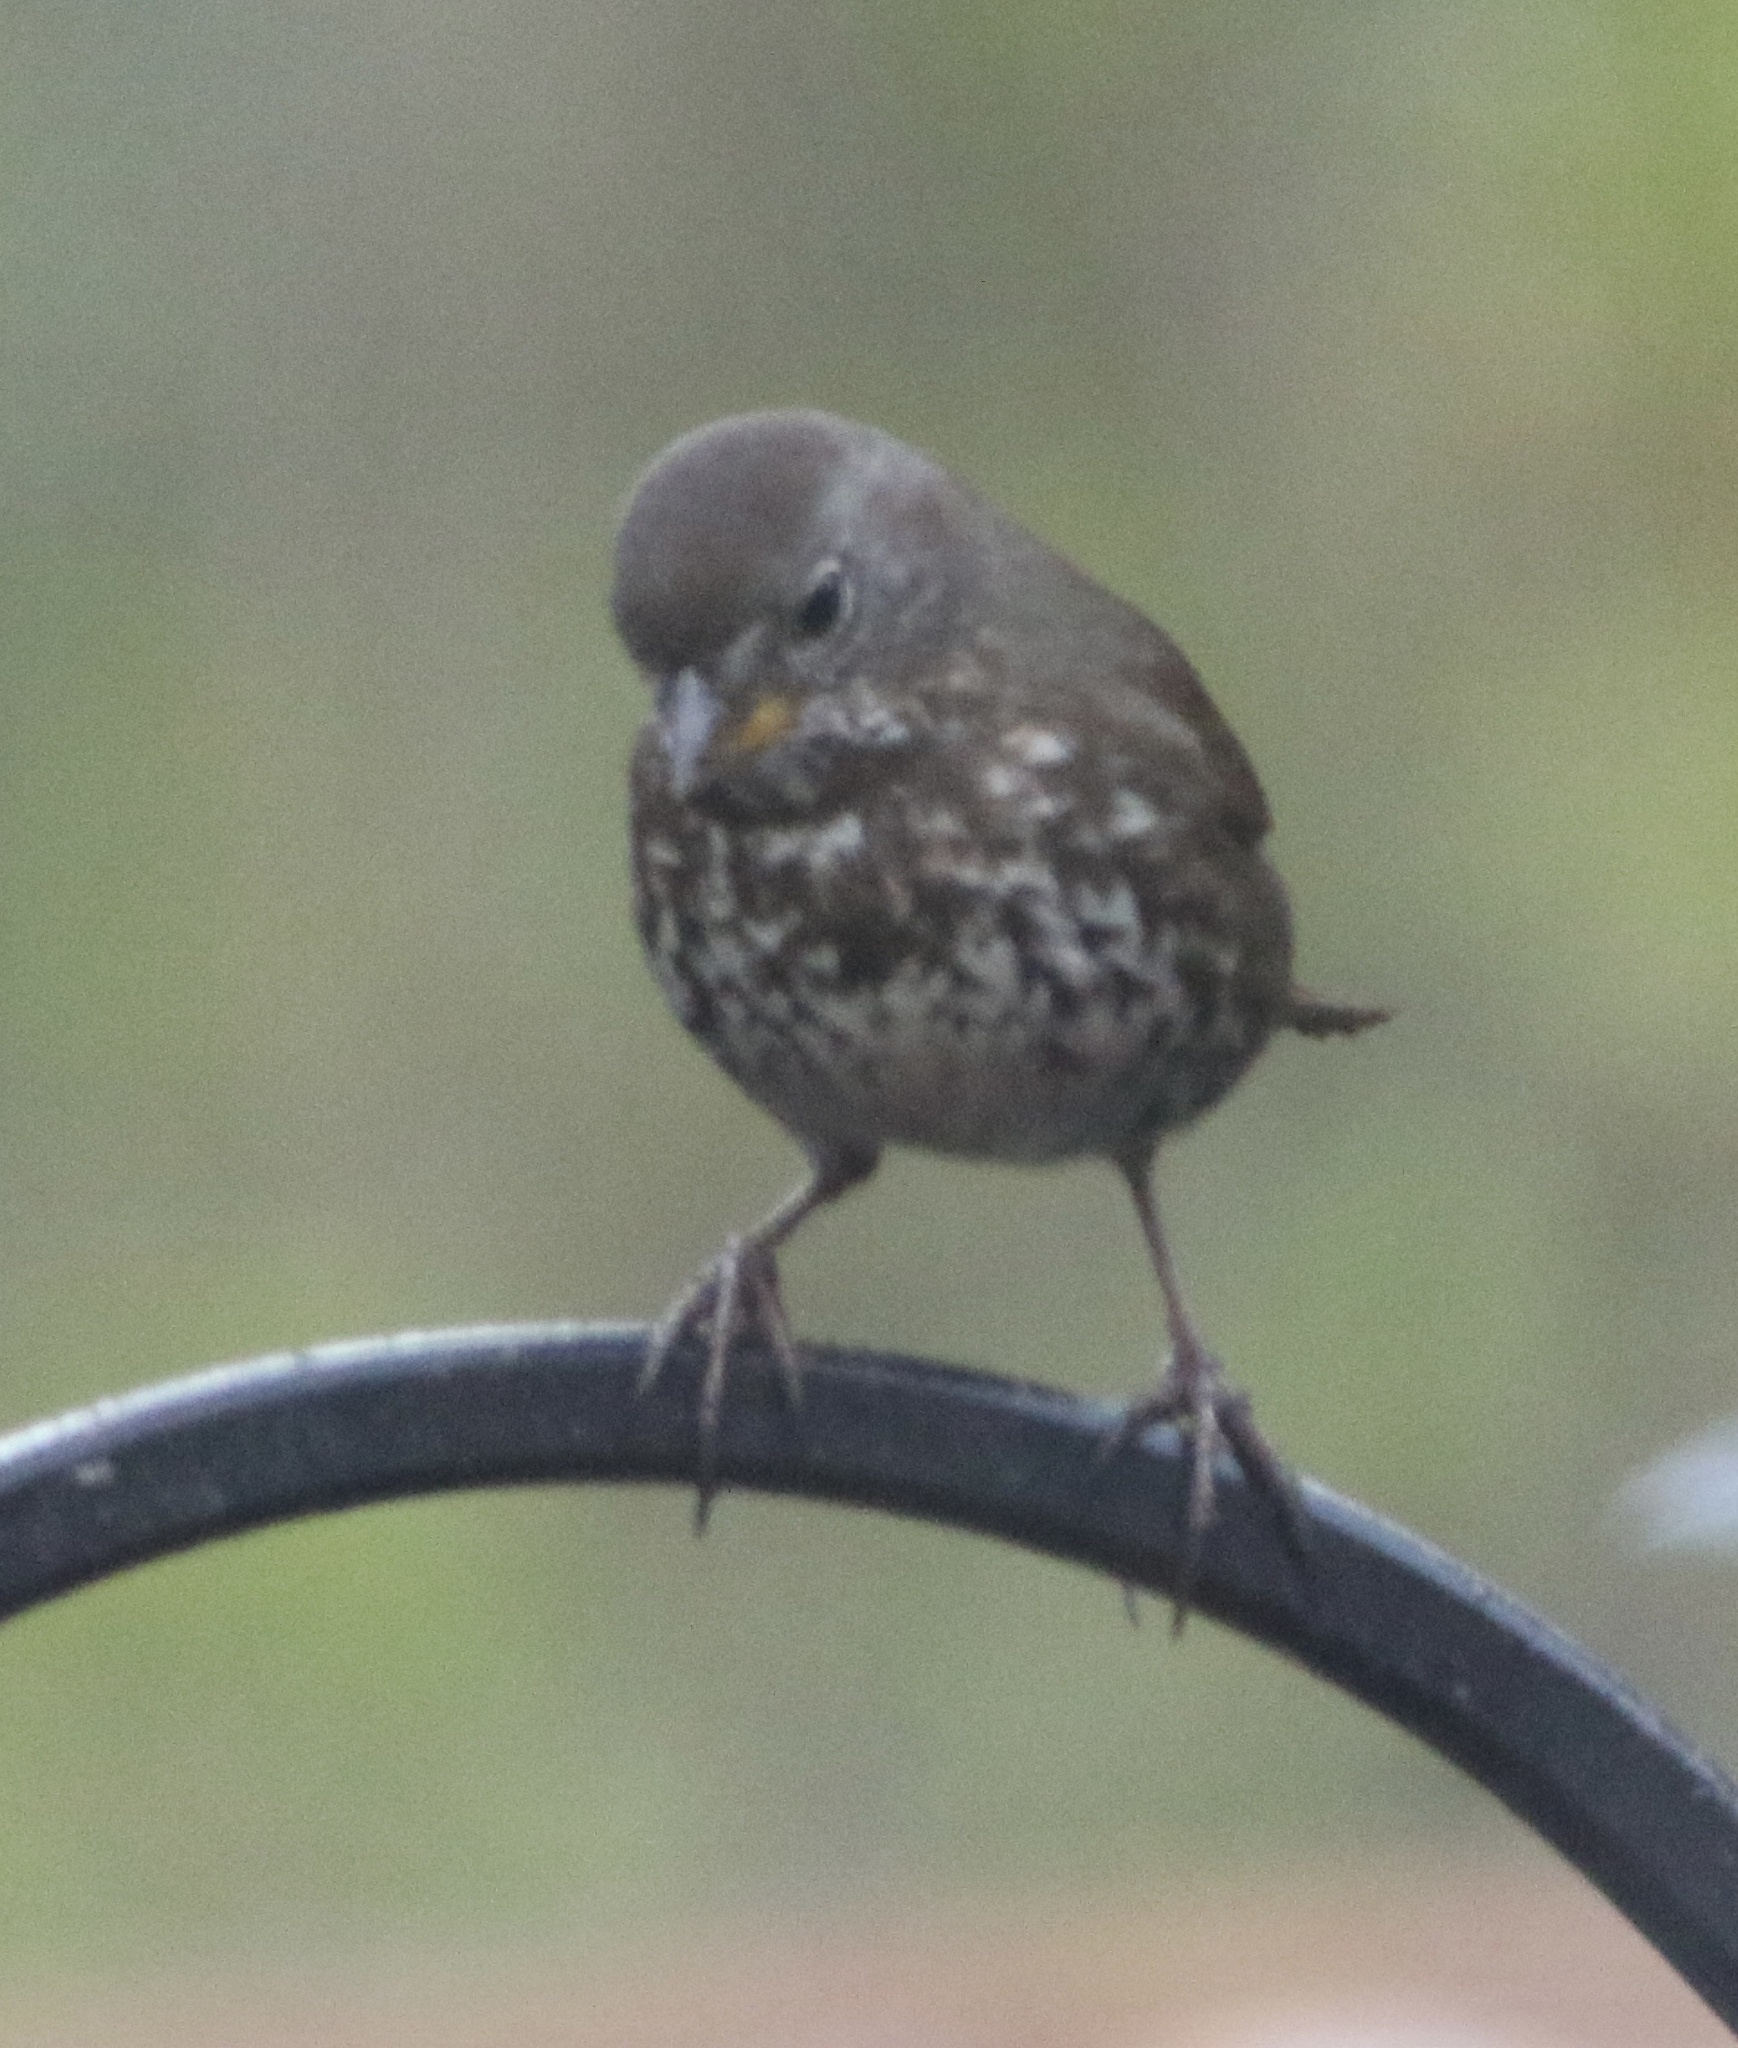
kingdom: Animalia
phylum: Chordata
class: Aves
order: Passeriformes
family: Passerellidae
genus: Passerella
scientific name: Passerella iliaca
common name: Fox sparrow
